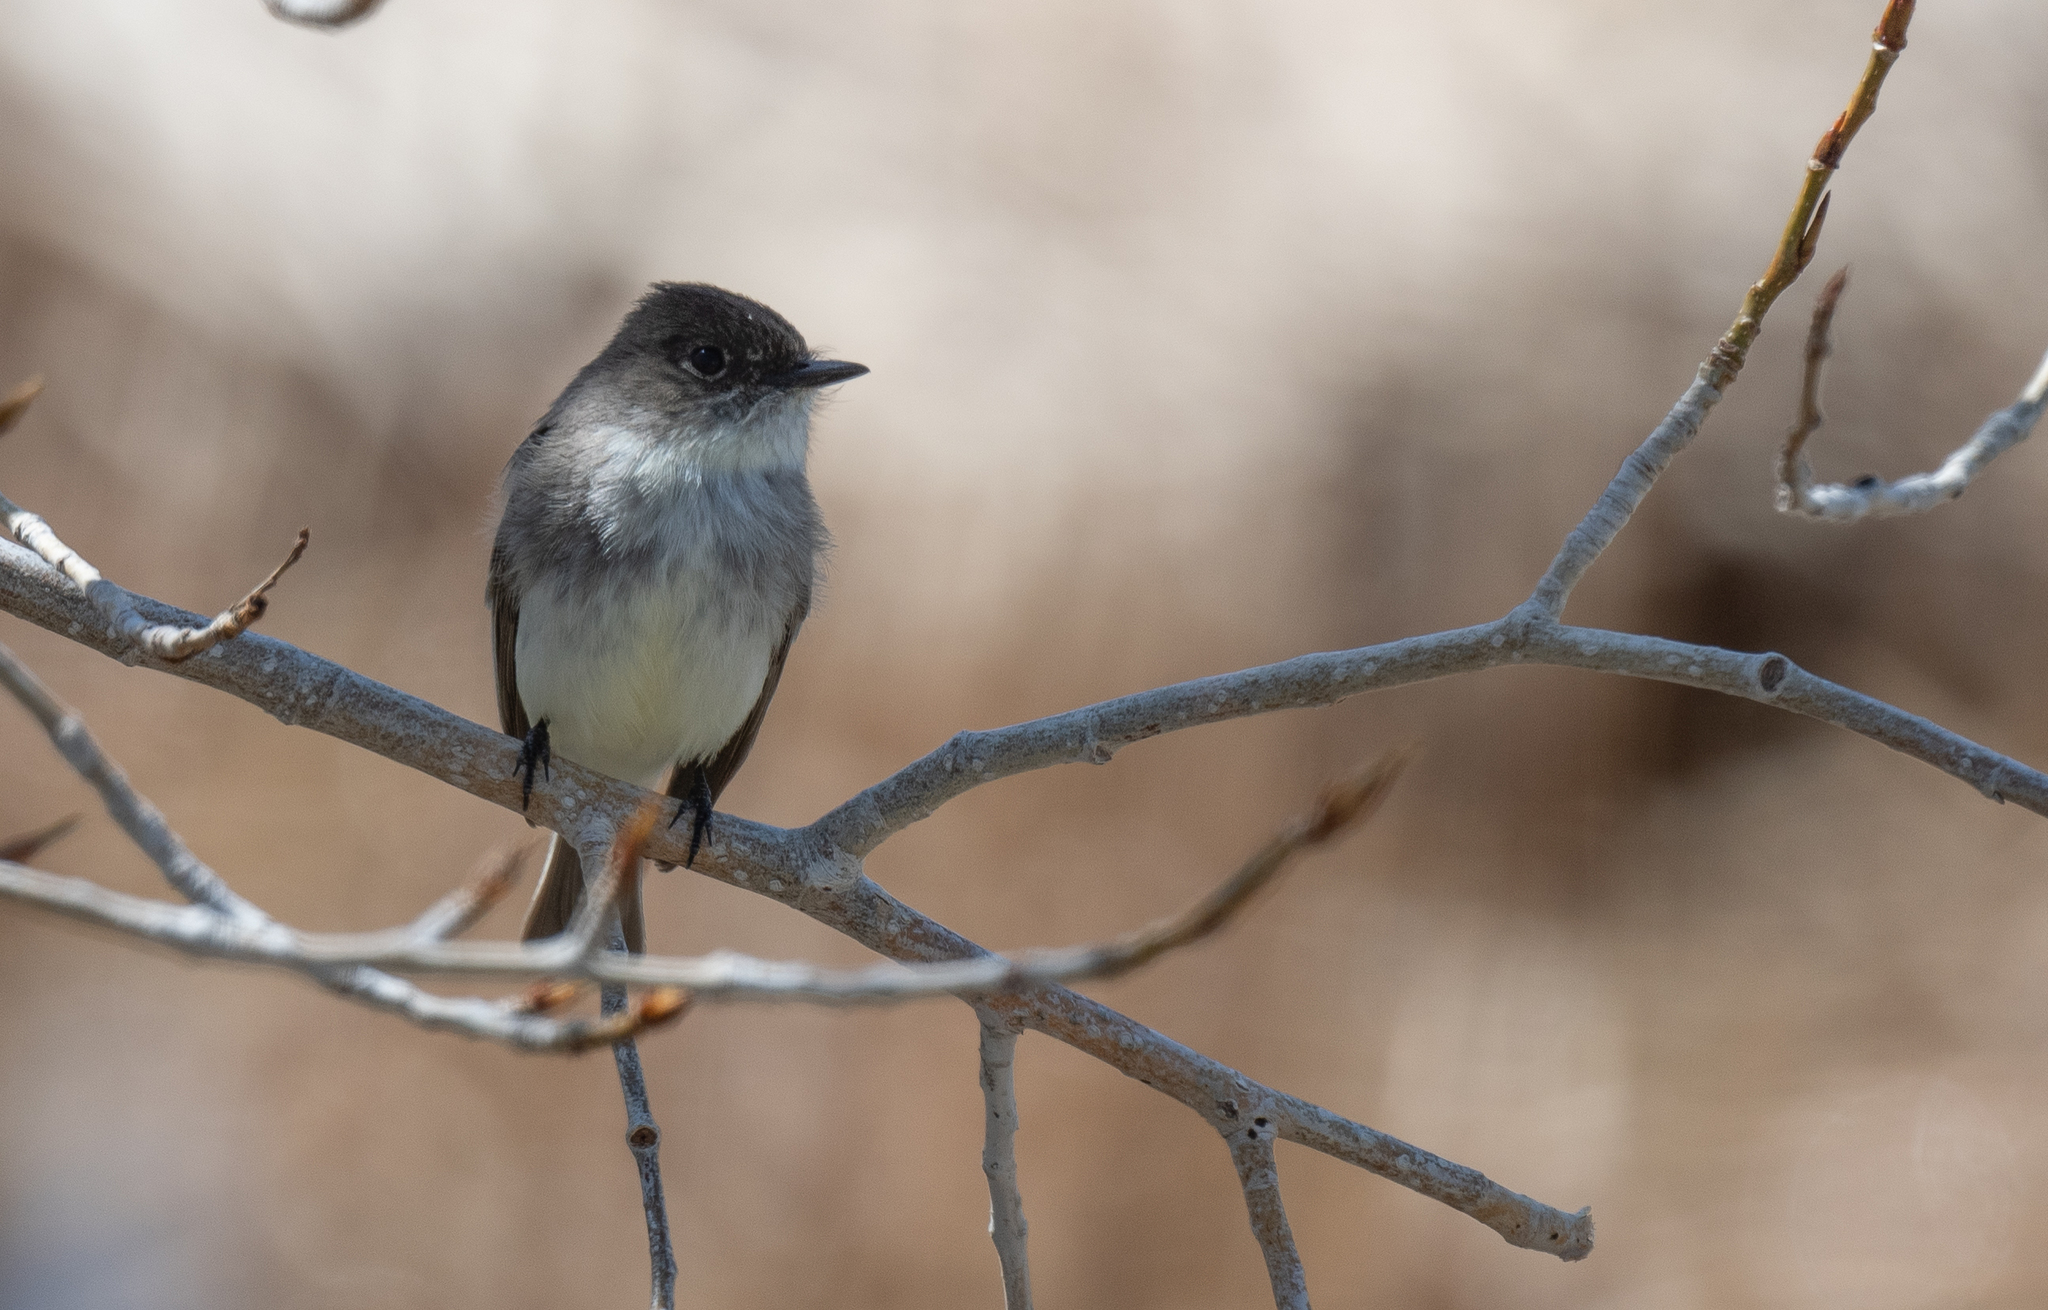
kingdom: Animalia
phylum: Chordata
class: Aves
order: Passeriformes
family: Tyrannidae
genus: Sayornis
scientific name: Sayornis phoebe
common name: Eastern phoebe
